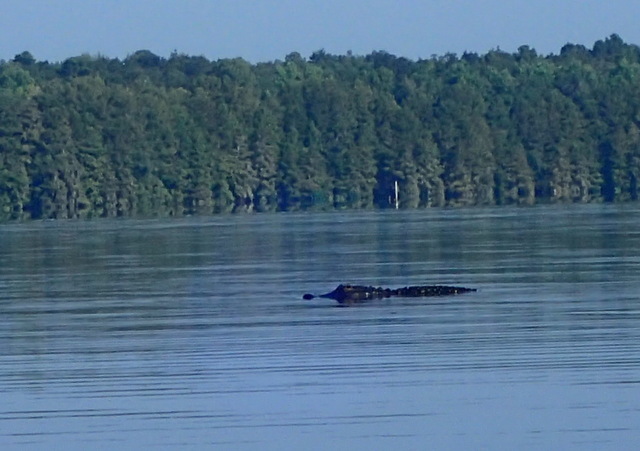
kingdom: Animalia
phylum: Chordata
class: Crocodylia
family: Alligatoridae
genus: Alligator
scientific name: Alligator mississippiensis
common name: American alligator
